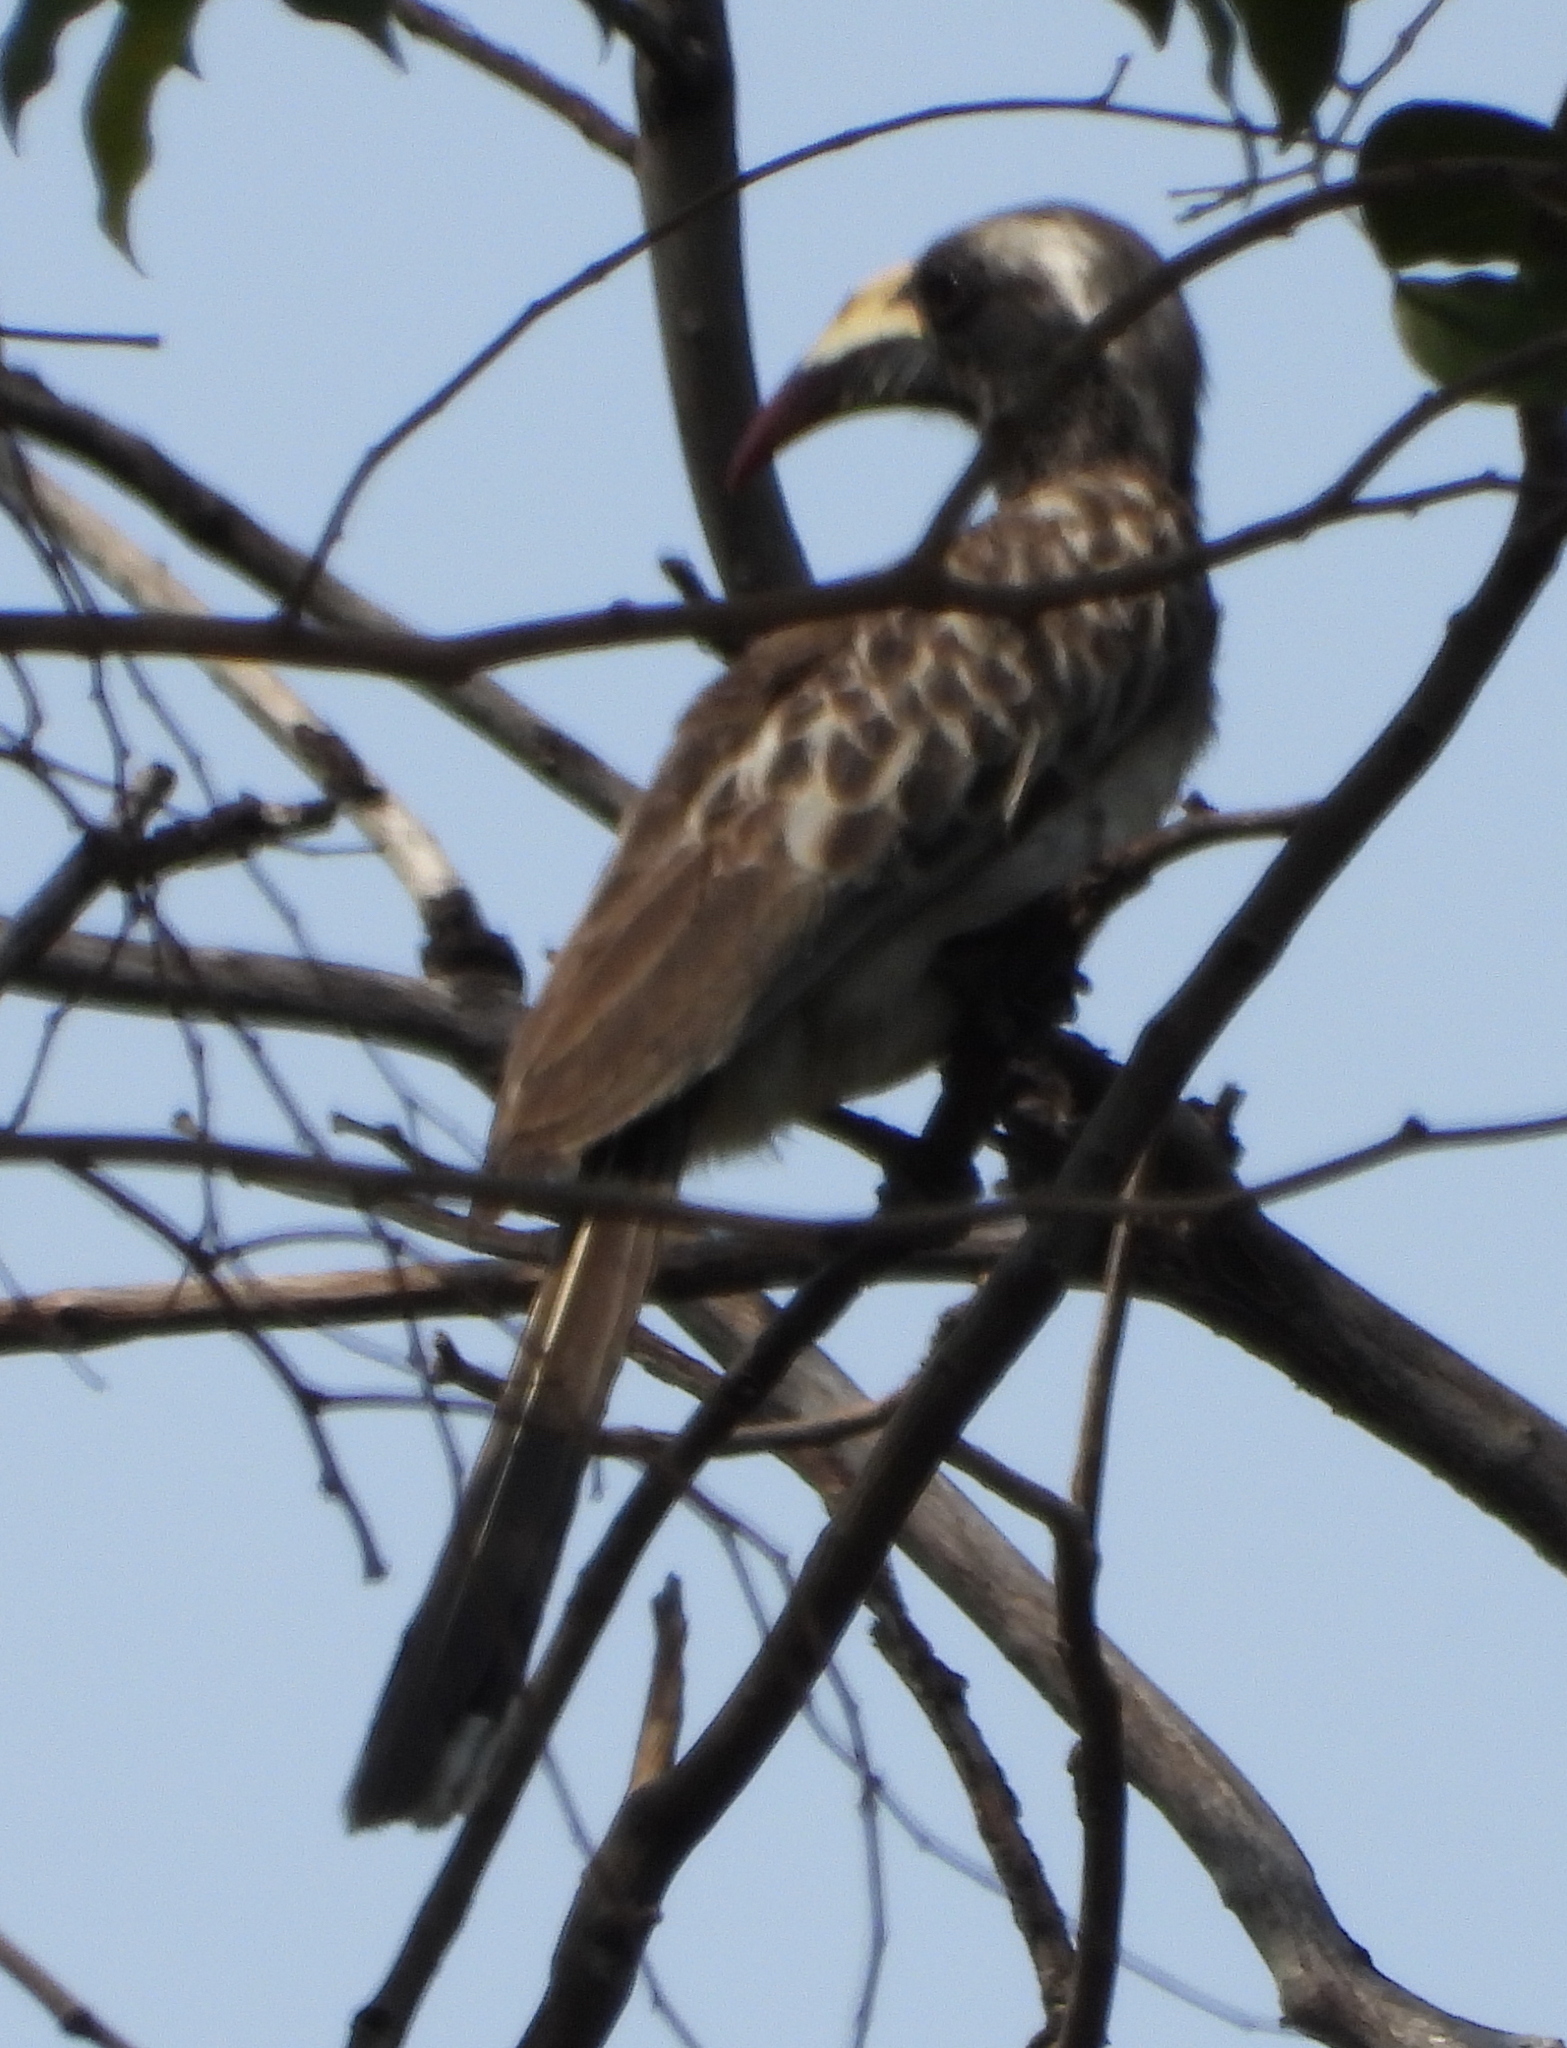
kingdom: Animalia
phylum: Chordata
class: Aves
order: Bucerotiformes
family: Bucerotidae
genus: Lophoceros
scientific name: Lophoceros nasutus
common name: African grey hornbill
